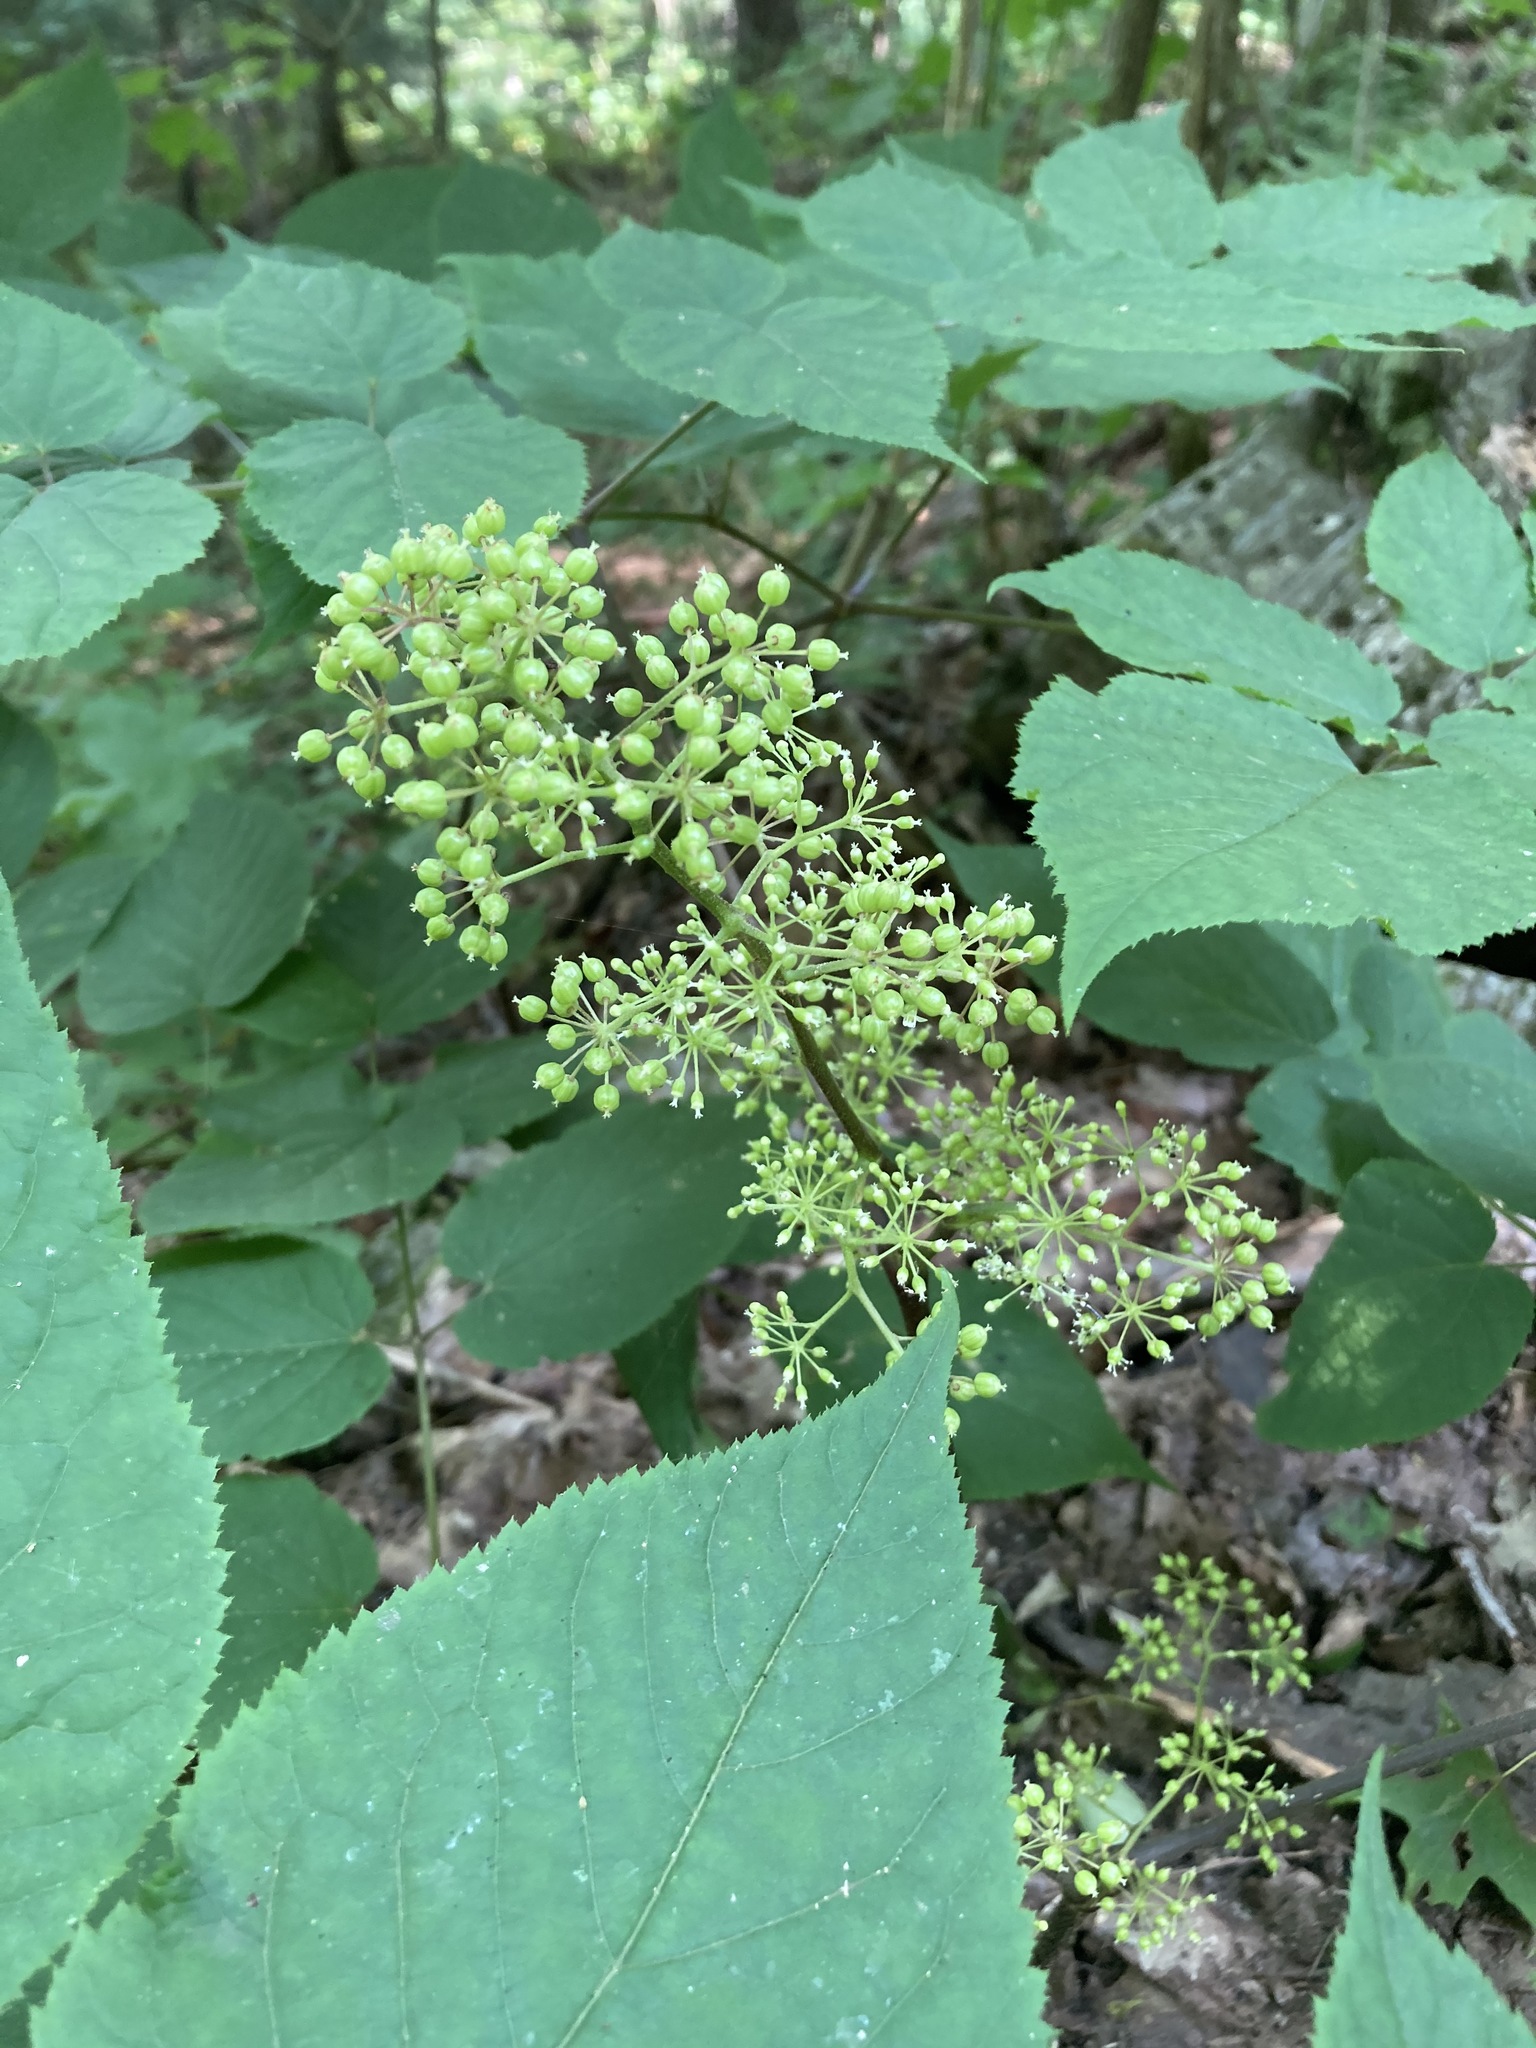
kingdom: Plantae
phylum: Tracheophyta
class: Magnoliopsida
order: Apiales
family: Araliaceae
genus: Aralia
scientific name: Aralia racemosa
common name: American-spikenard
